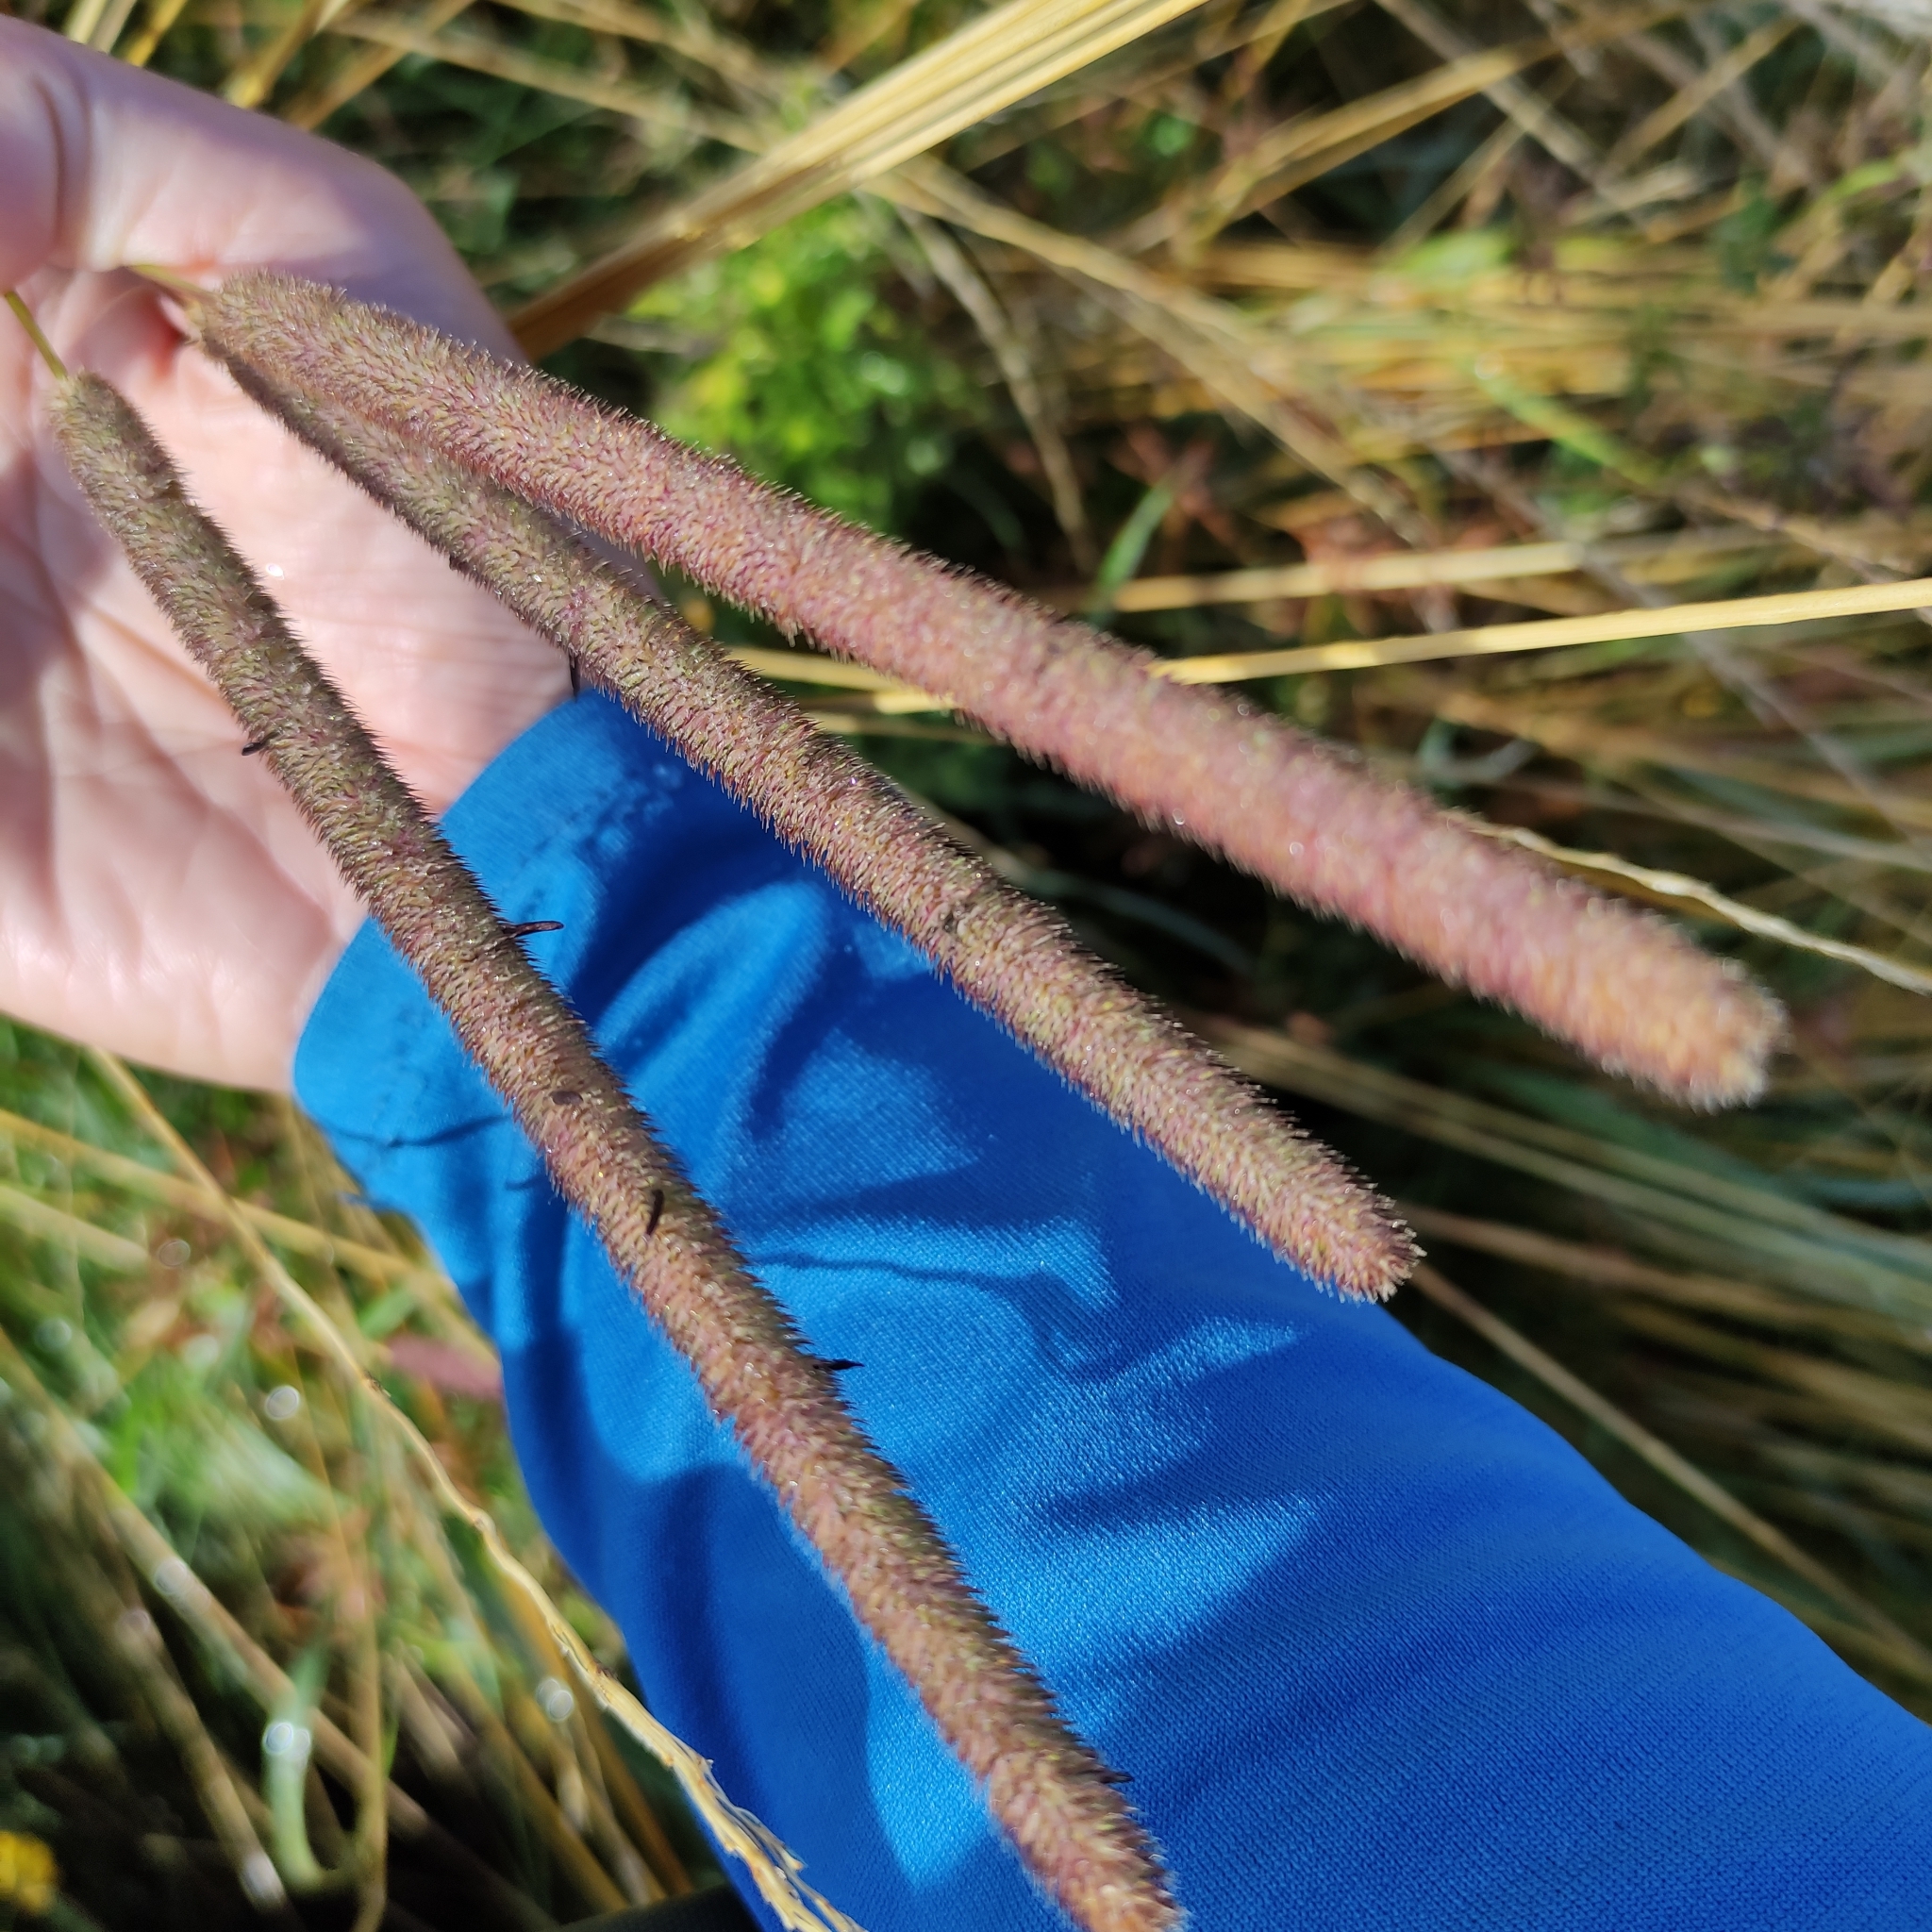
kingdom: Plantae
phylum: Tracheophyta
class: Liliopsida
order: Poales
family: Poaceae
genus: Phleum
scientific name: Phleum pratense
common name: Timothy grass
